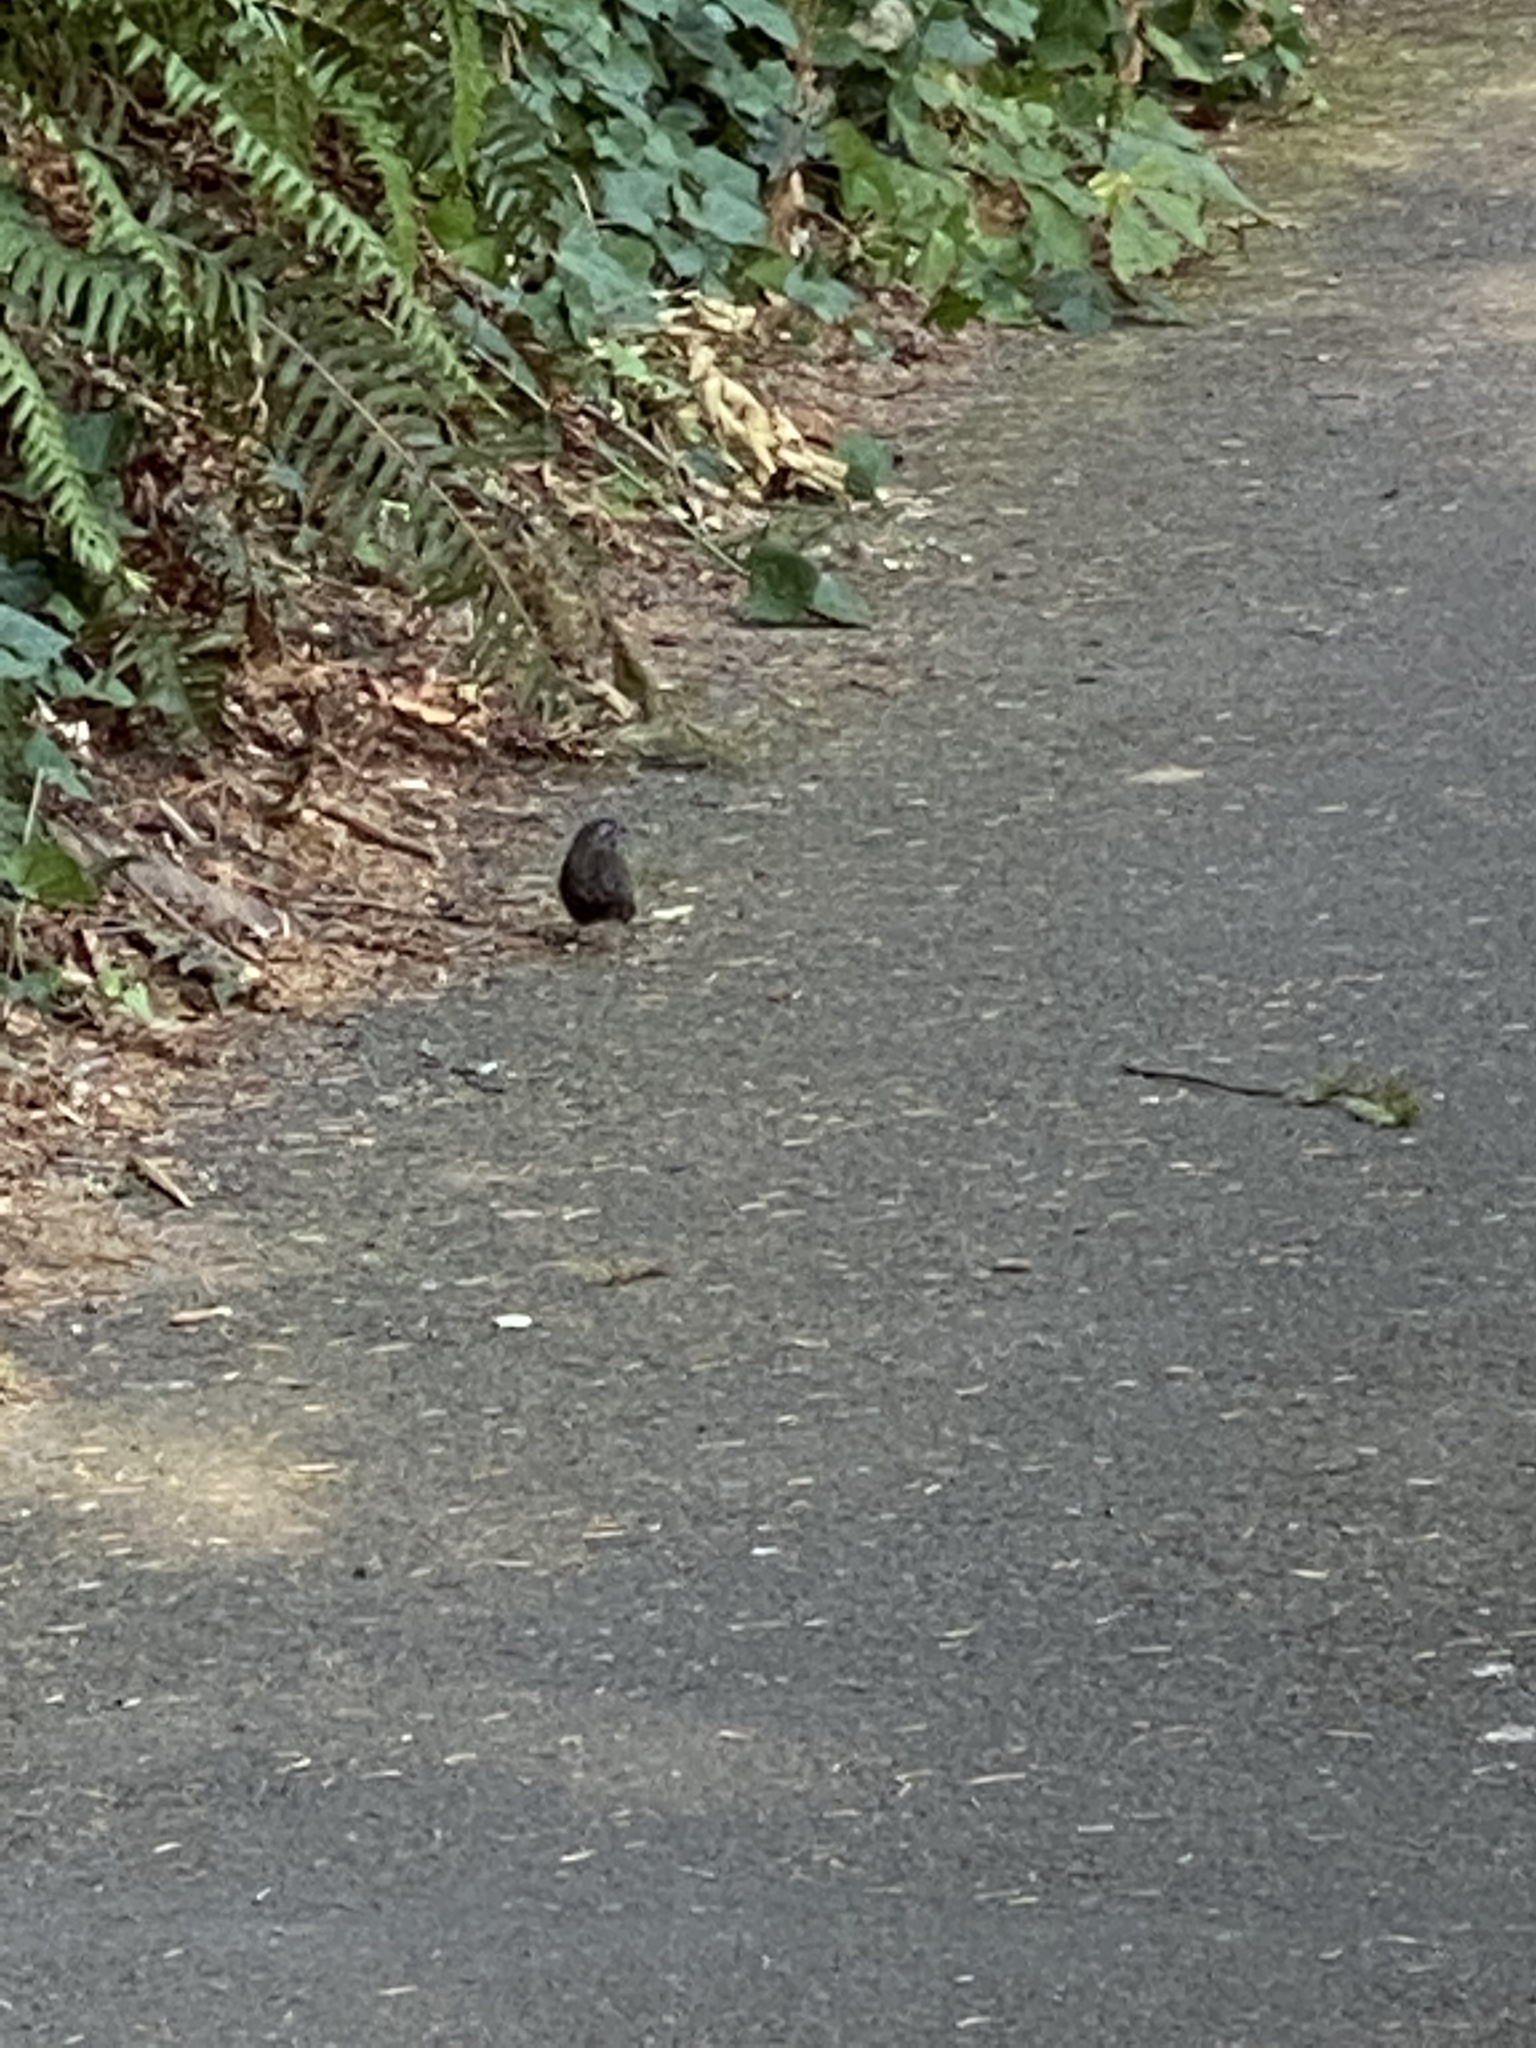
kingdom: Animalia
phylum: Chordata
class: Aves
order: Passeriformes
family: Passerellidae
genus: Melospiza
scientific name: Melospiza melodia
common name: Song sparrow
